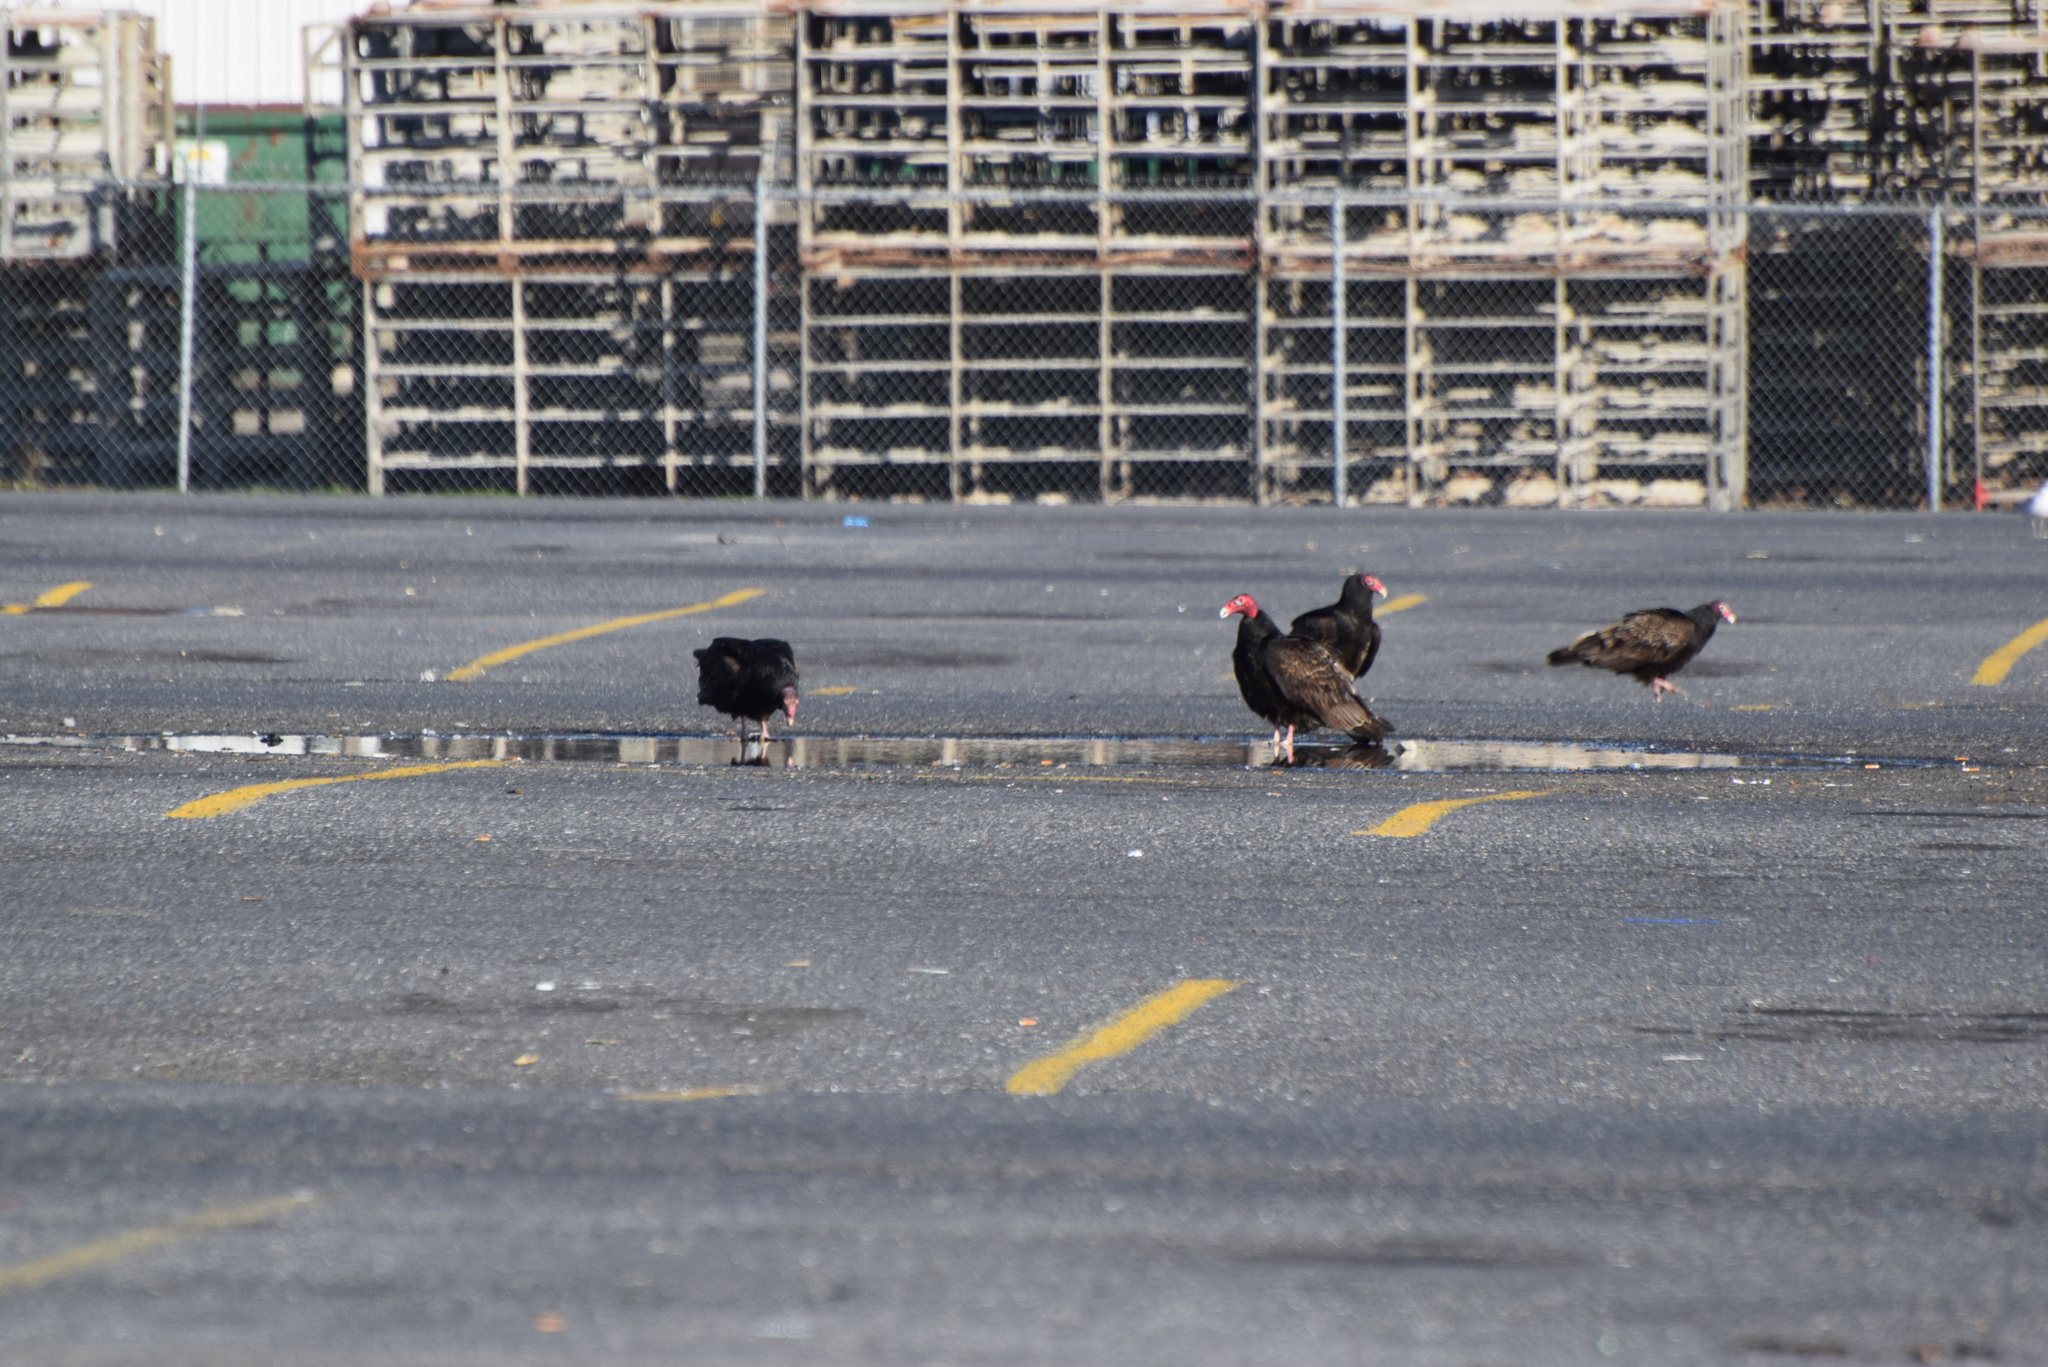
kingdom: Animalia
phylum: Chordata
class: Aves
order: Accipitriformes
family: Cathartidae
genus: Cathartes
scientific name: Cathartes aura
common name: Turkey vulture
